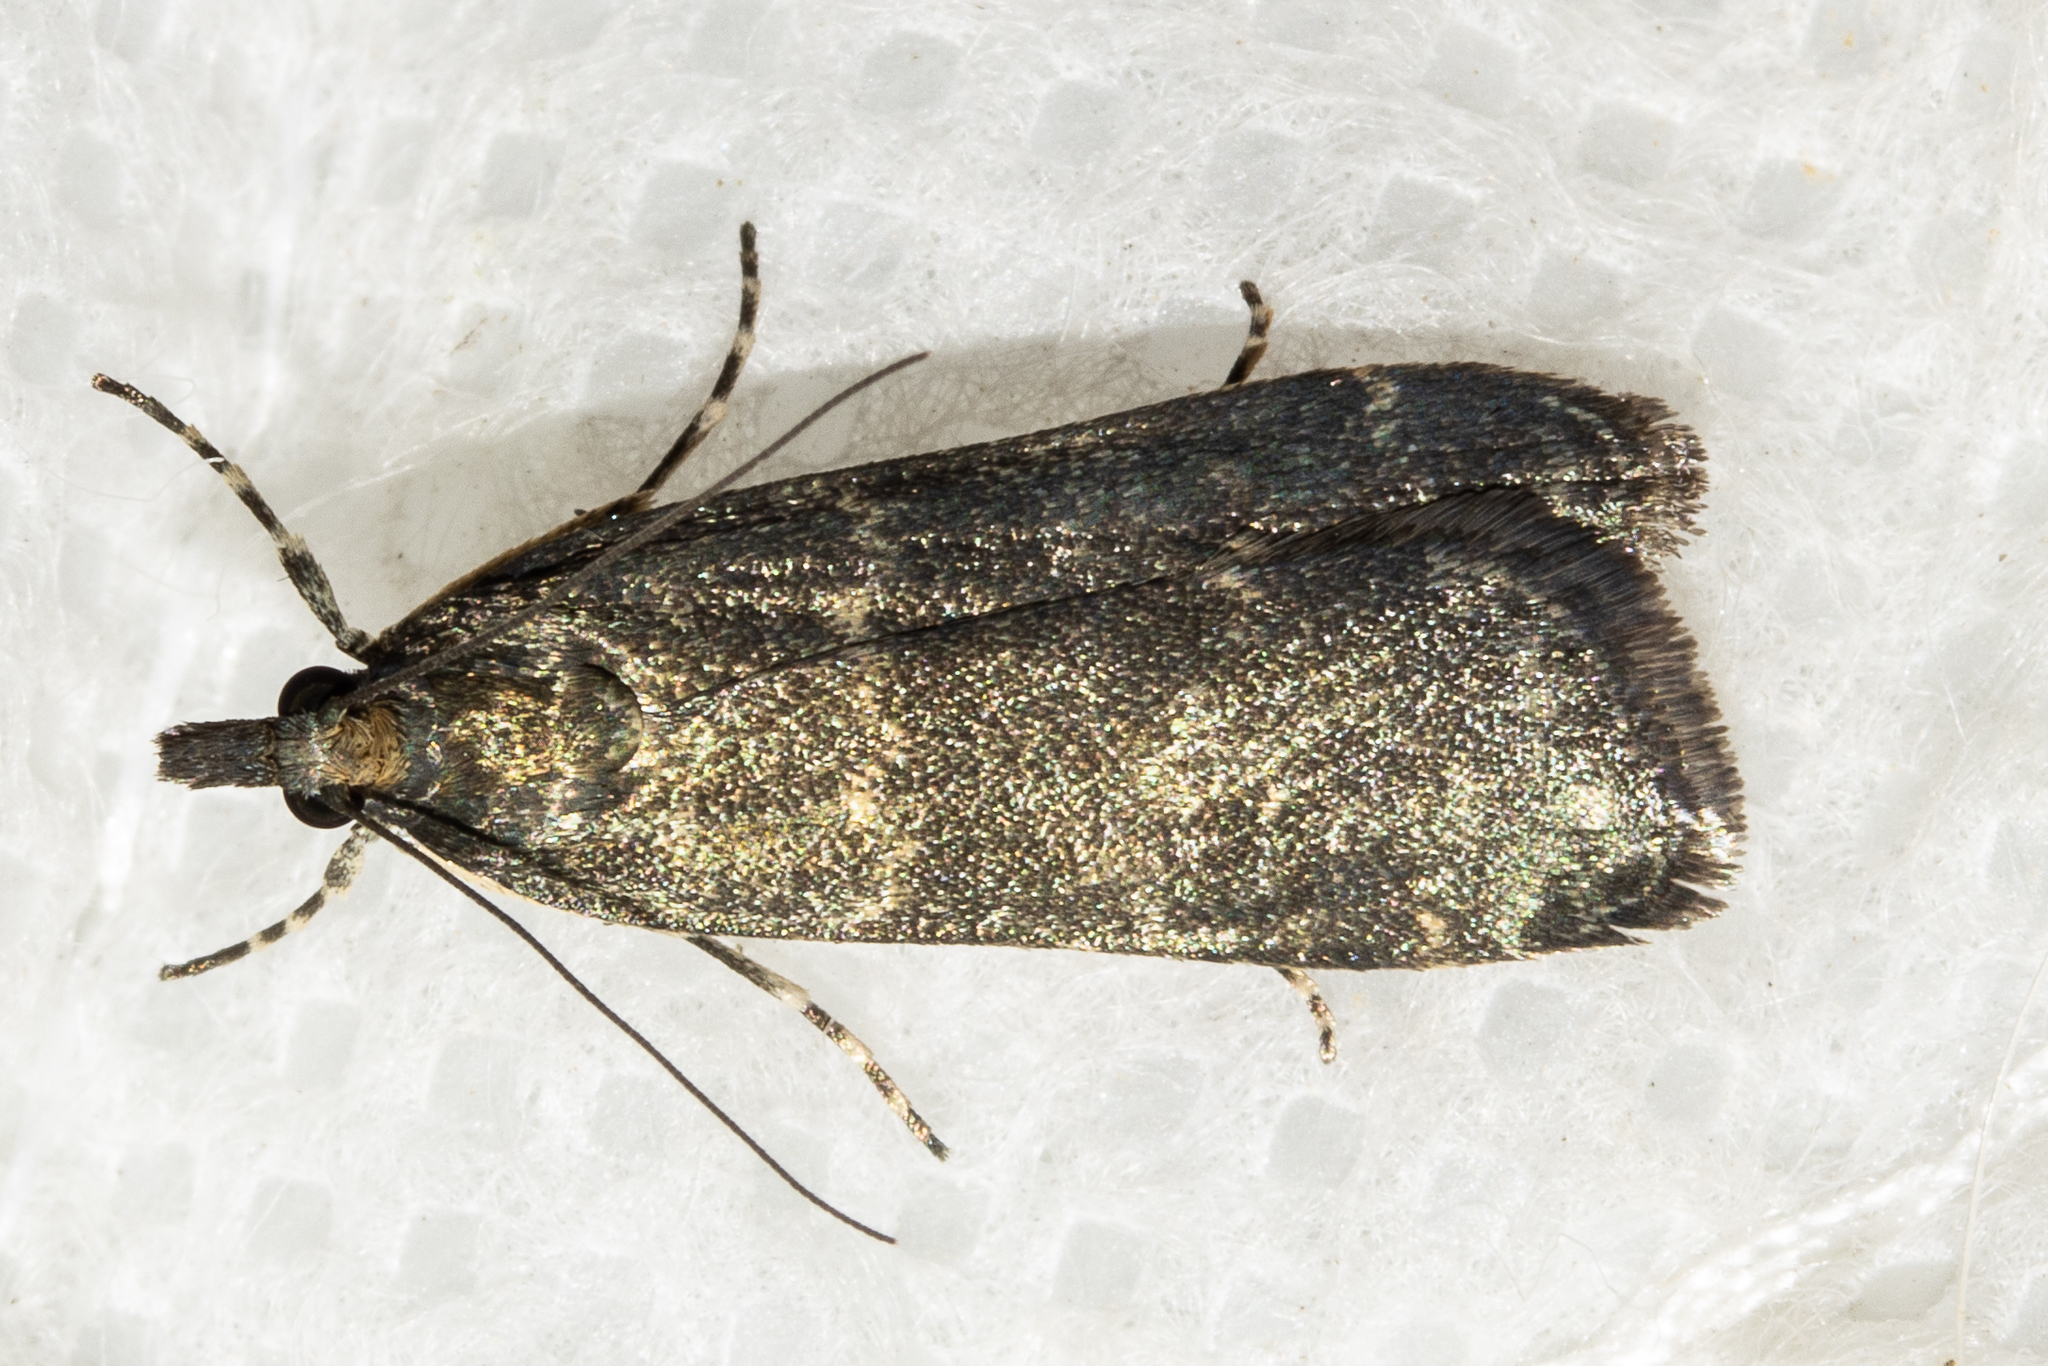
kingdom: Animalia
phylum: Arthropoda
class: Insecta
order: Lepidoptera
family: Crambidae
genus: Eudonia
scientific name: Eudonia cataxesta
